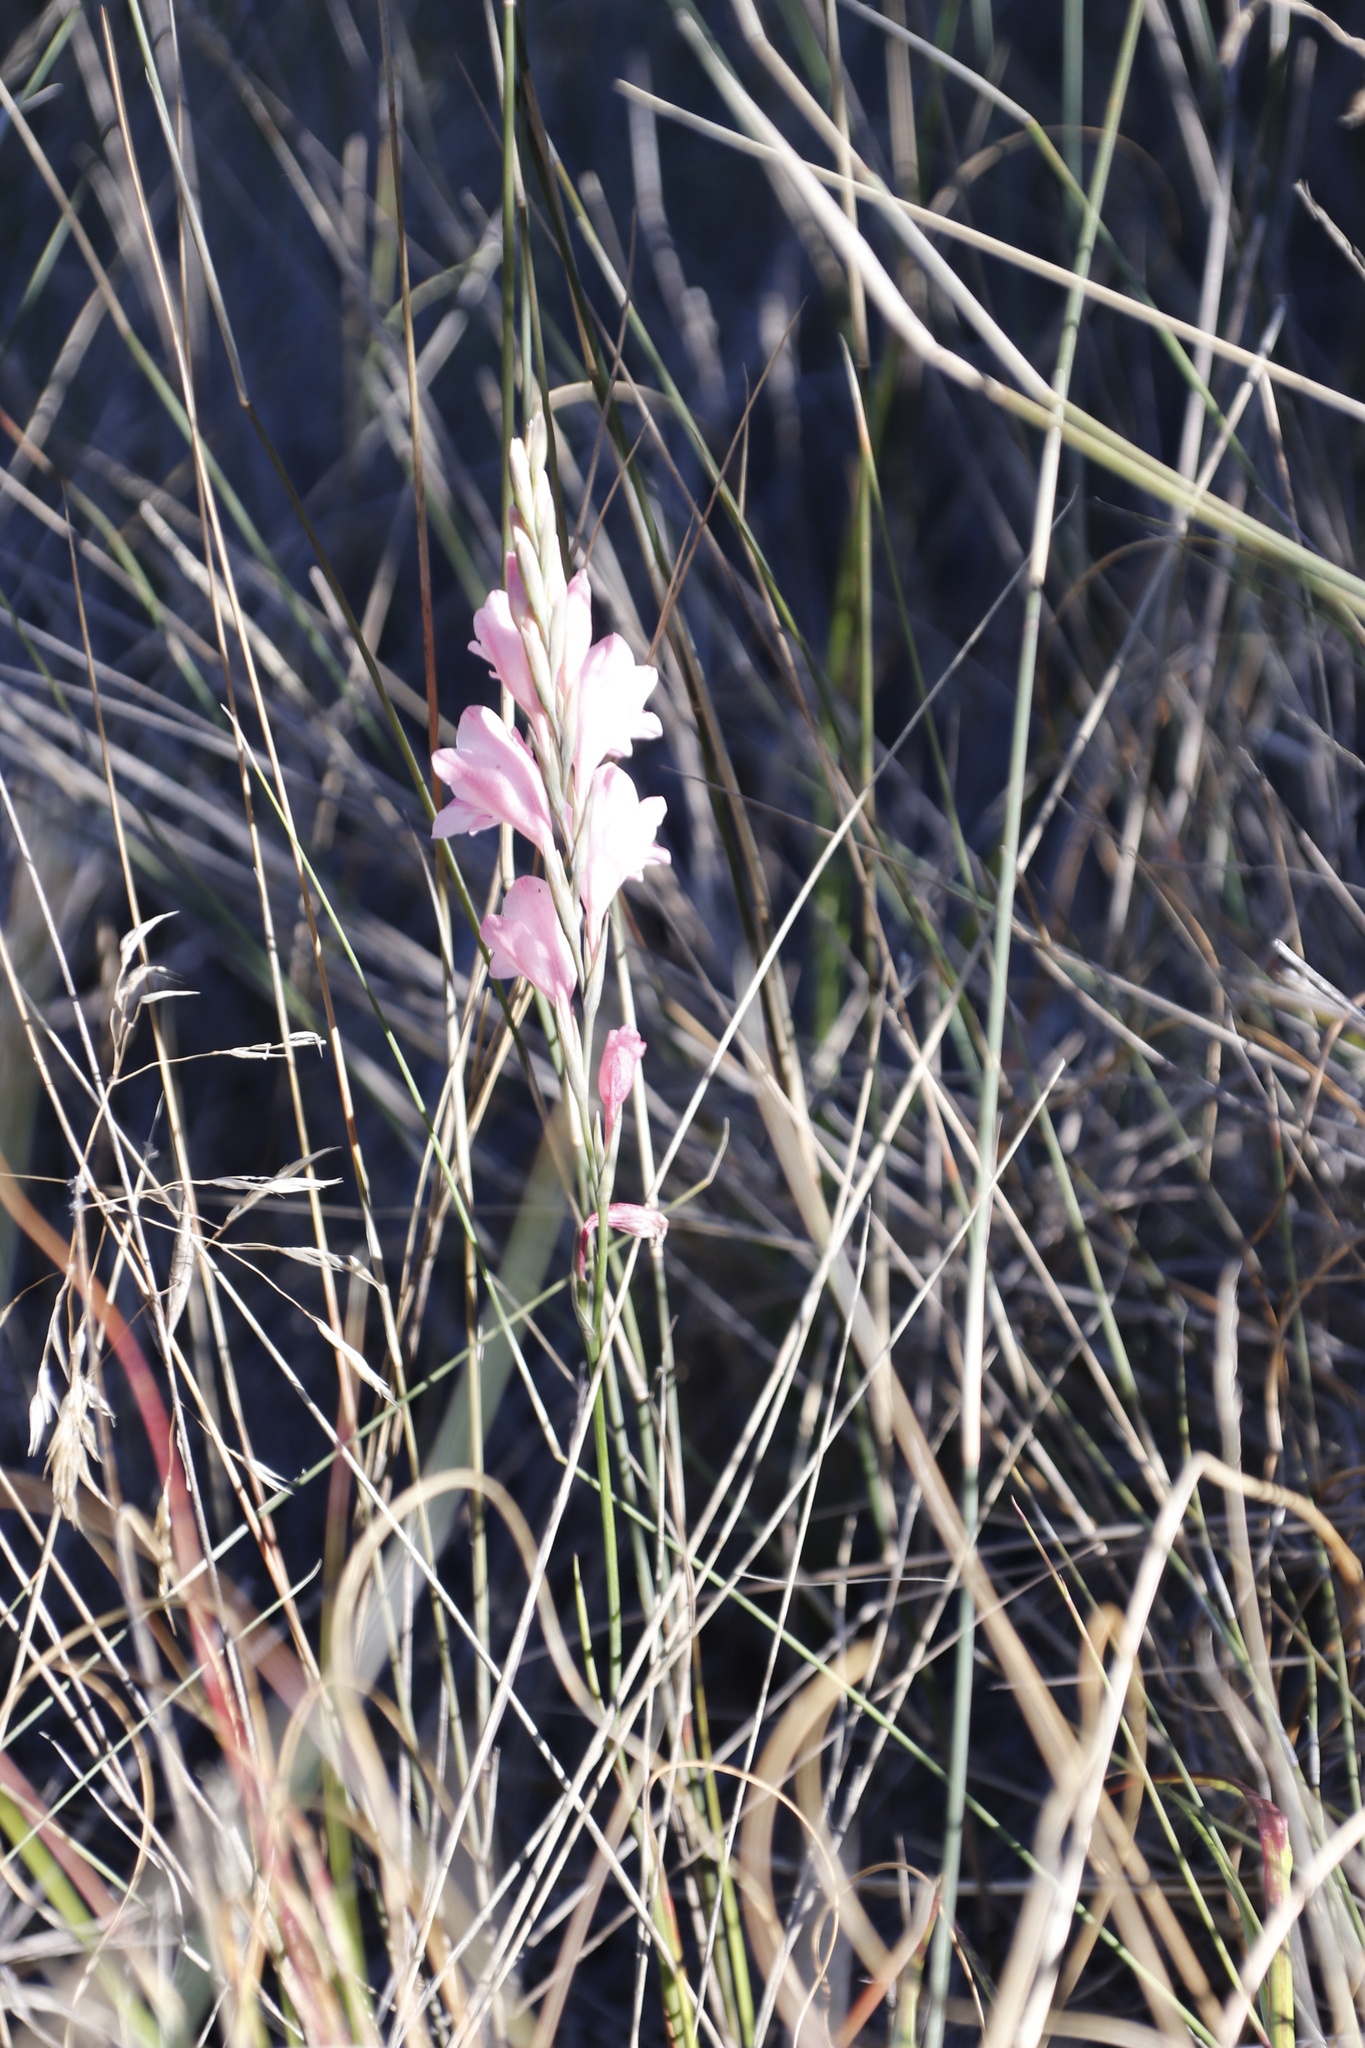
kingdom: Plantae
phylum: Tracheophyta
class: Liliopsida
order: Asparagales
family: Iridaceae
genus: Gladiolus
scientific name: Gladiolus brevifolius
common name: March pypie
